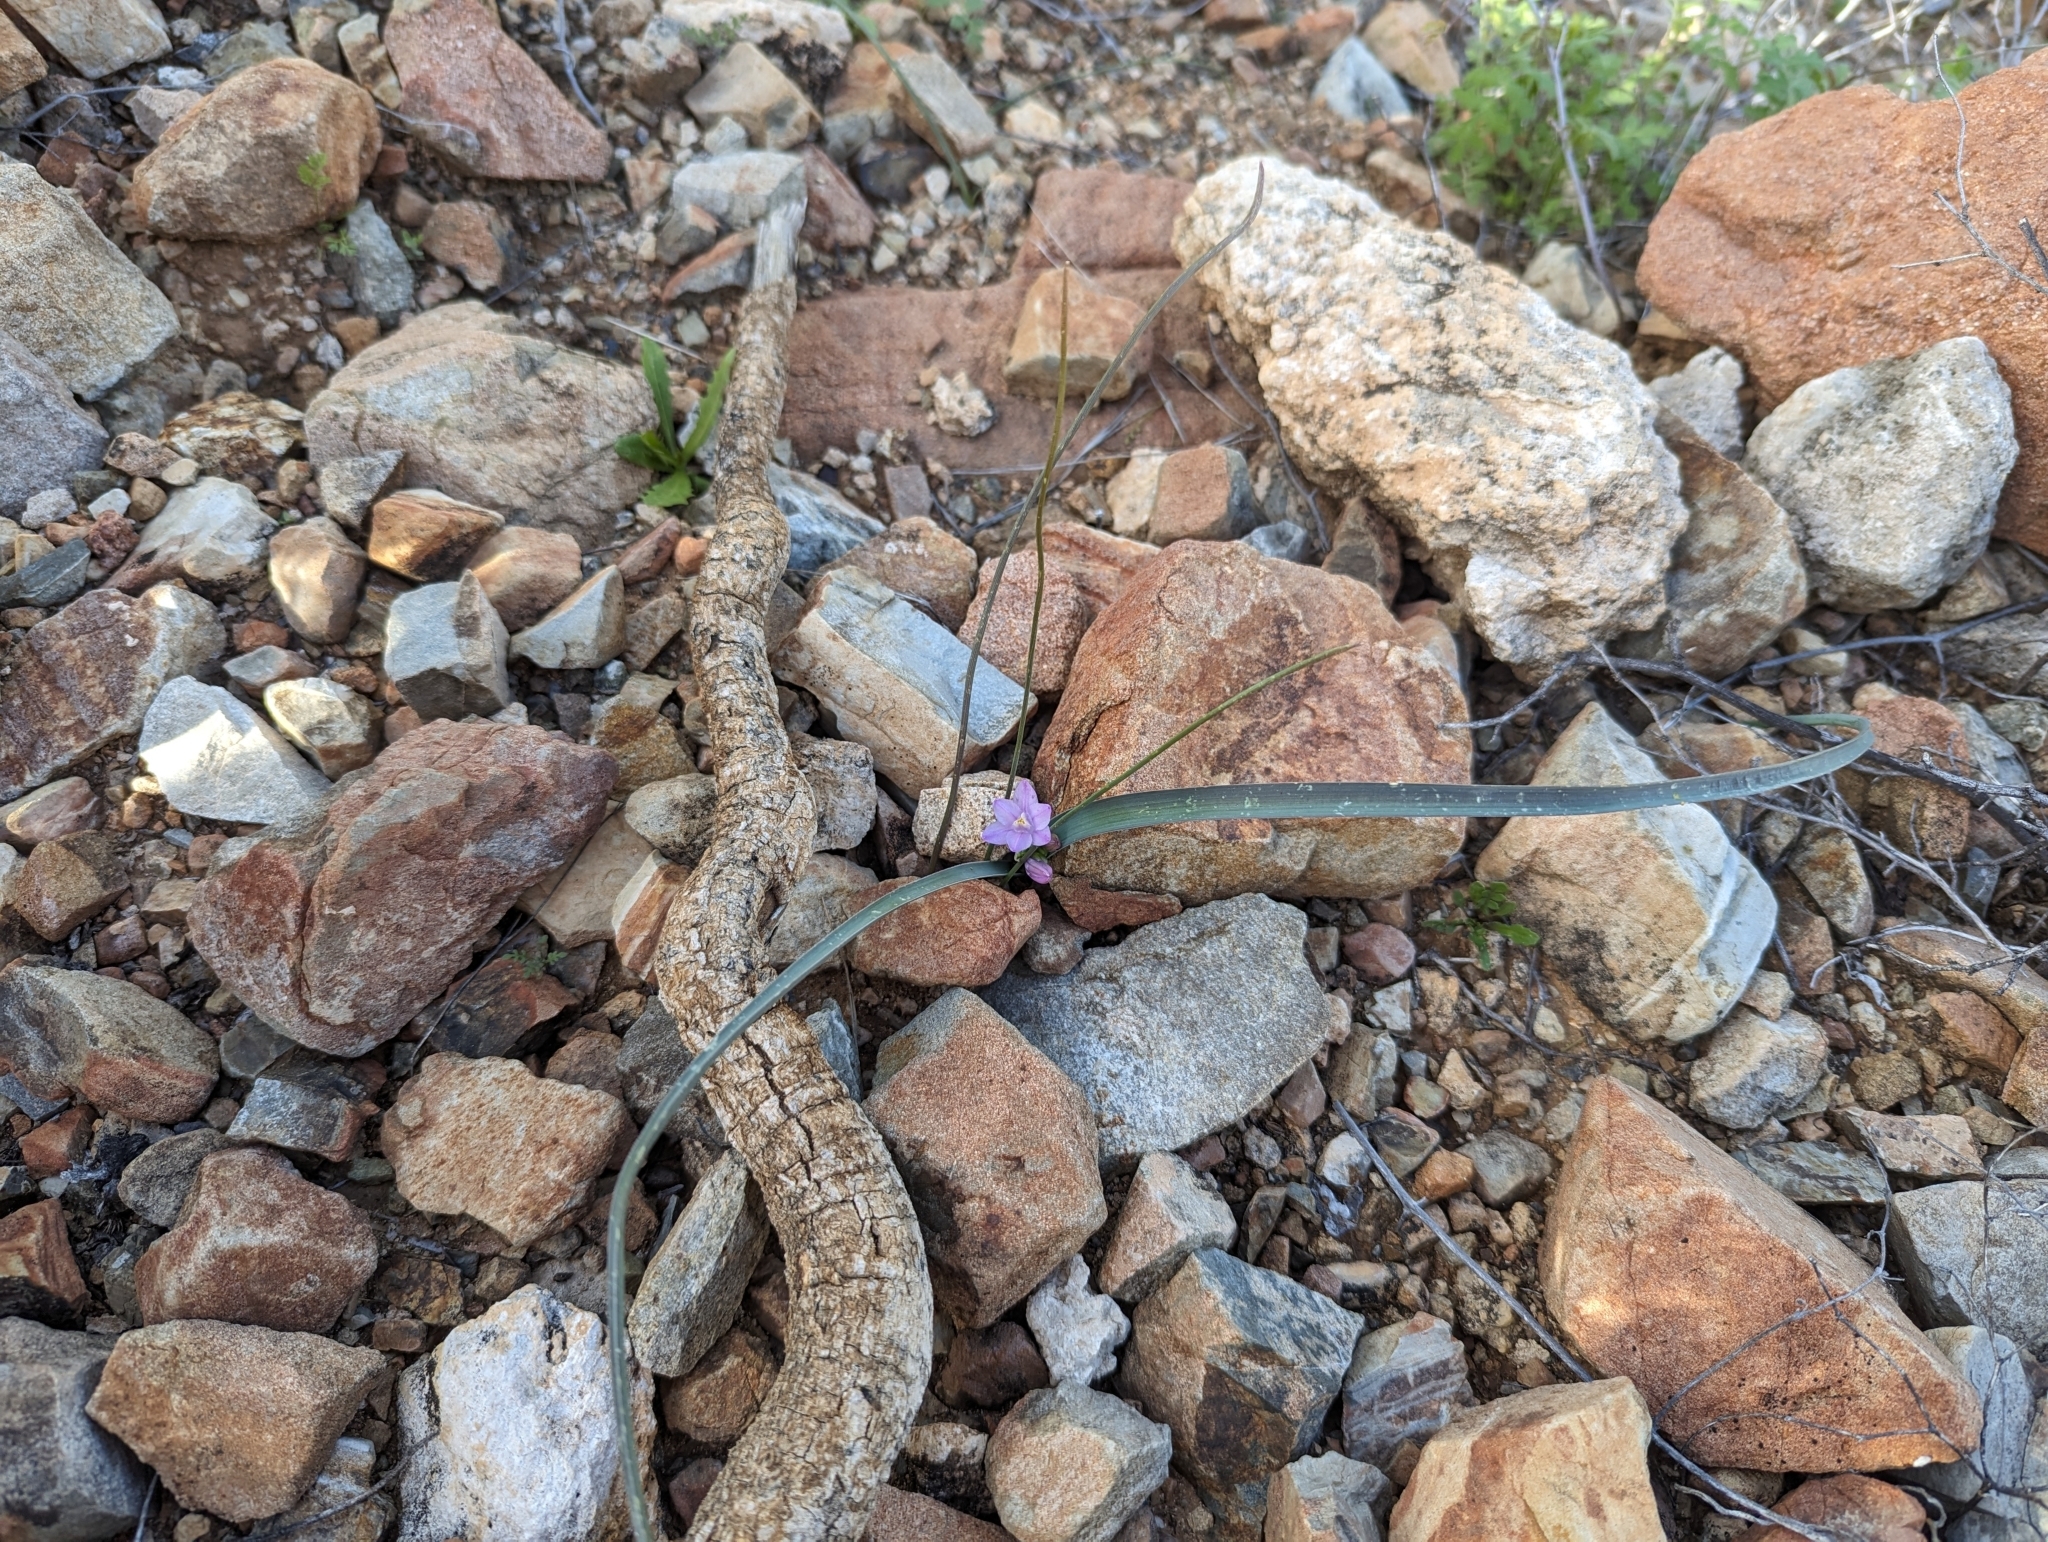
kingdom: Plantae
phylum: Tracheophyta
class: Liliopsida
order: Asparagales
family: Asparagaceae
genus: Dipterostemon
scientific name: Dipterostemon capitatus
